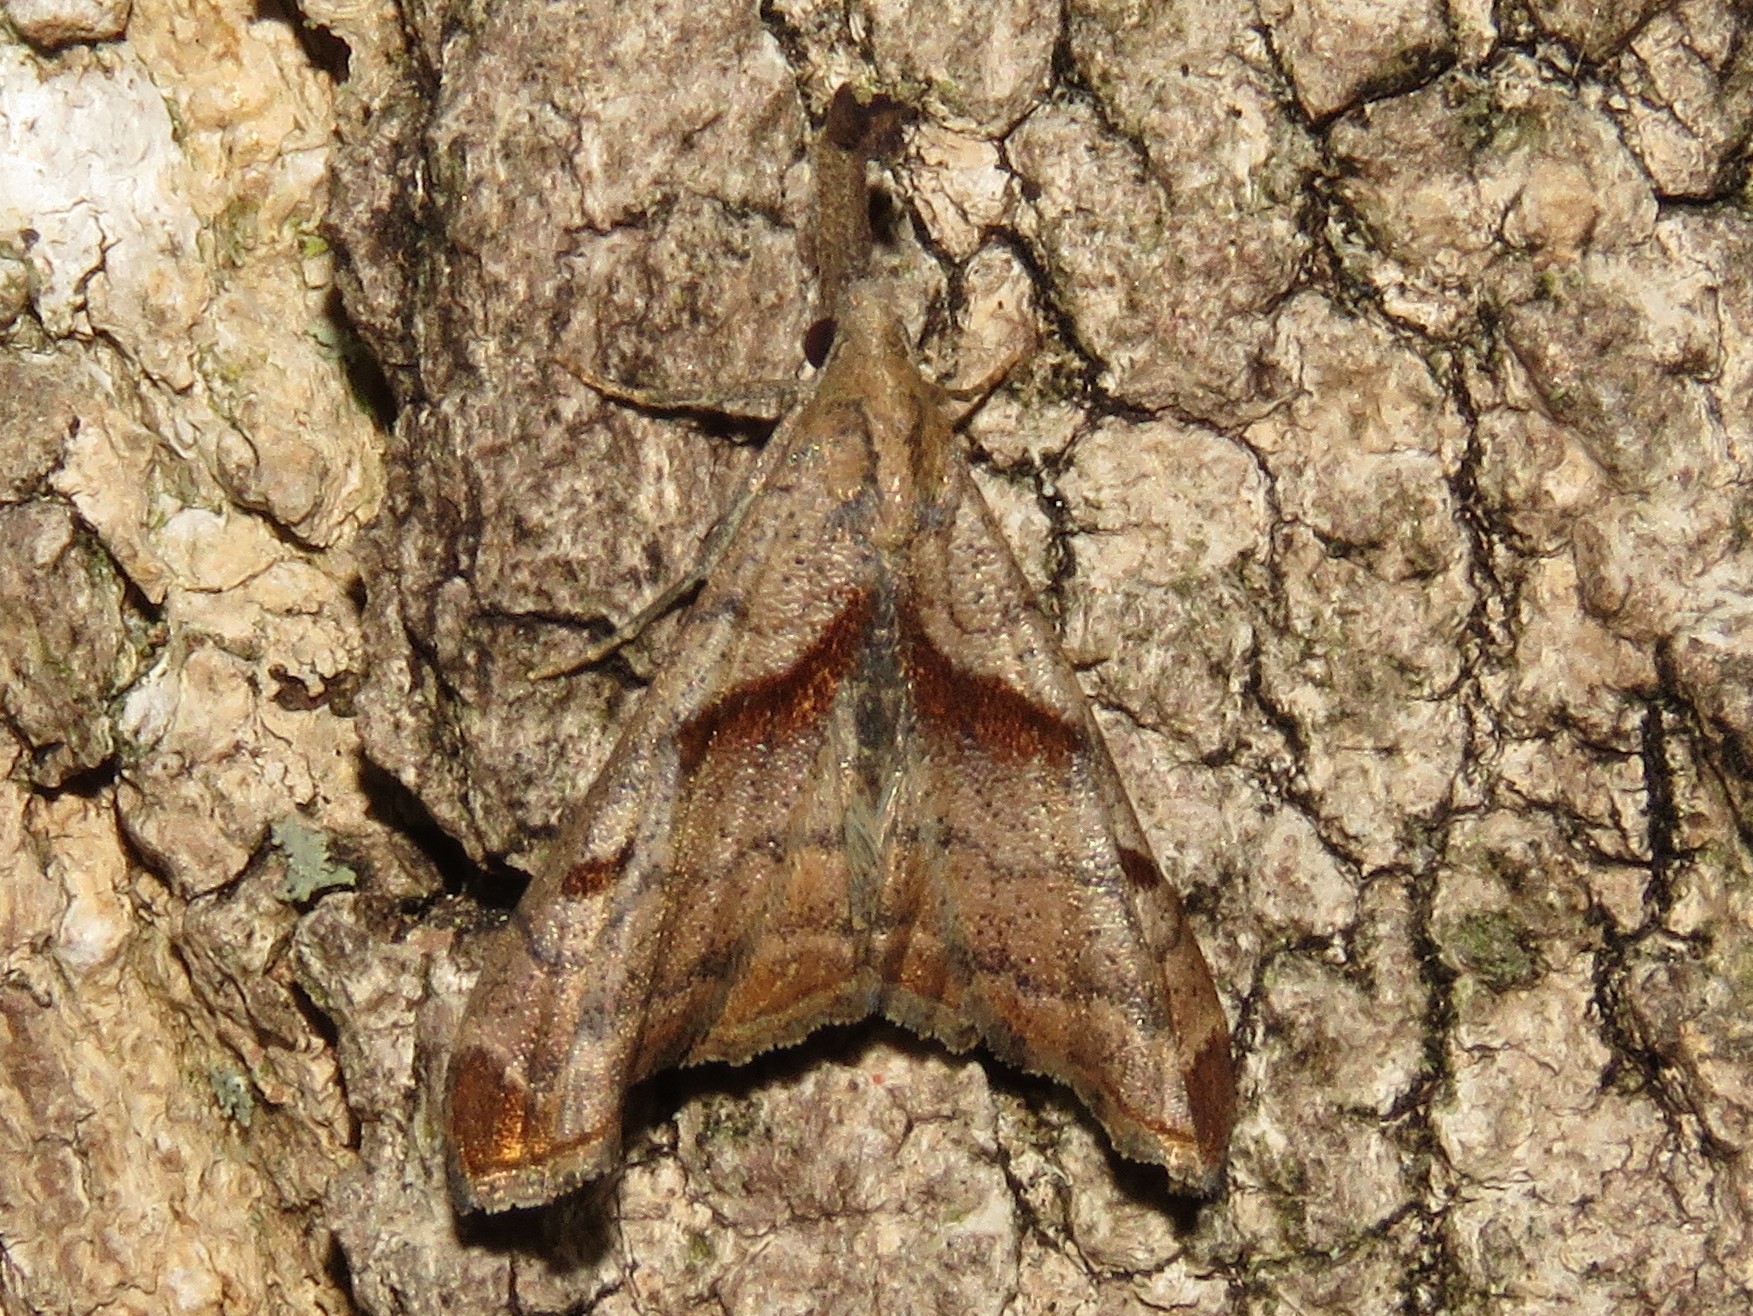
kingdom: Animalia
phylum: Arthropoda
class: Insecta
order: Lepidoptera
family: Erebidae
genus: Palthis
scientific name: Palthis angulalis
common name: Dark-spotted palthis moth
